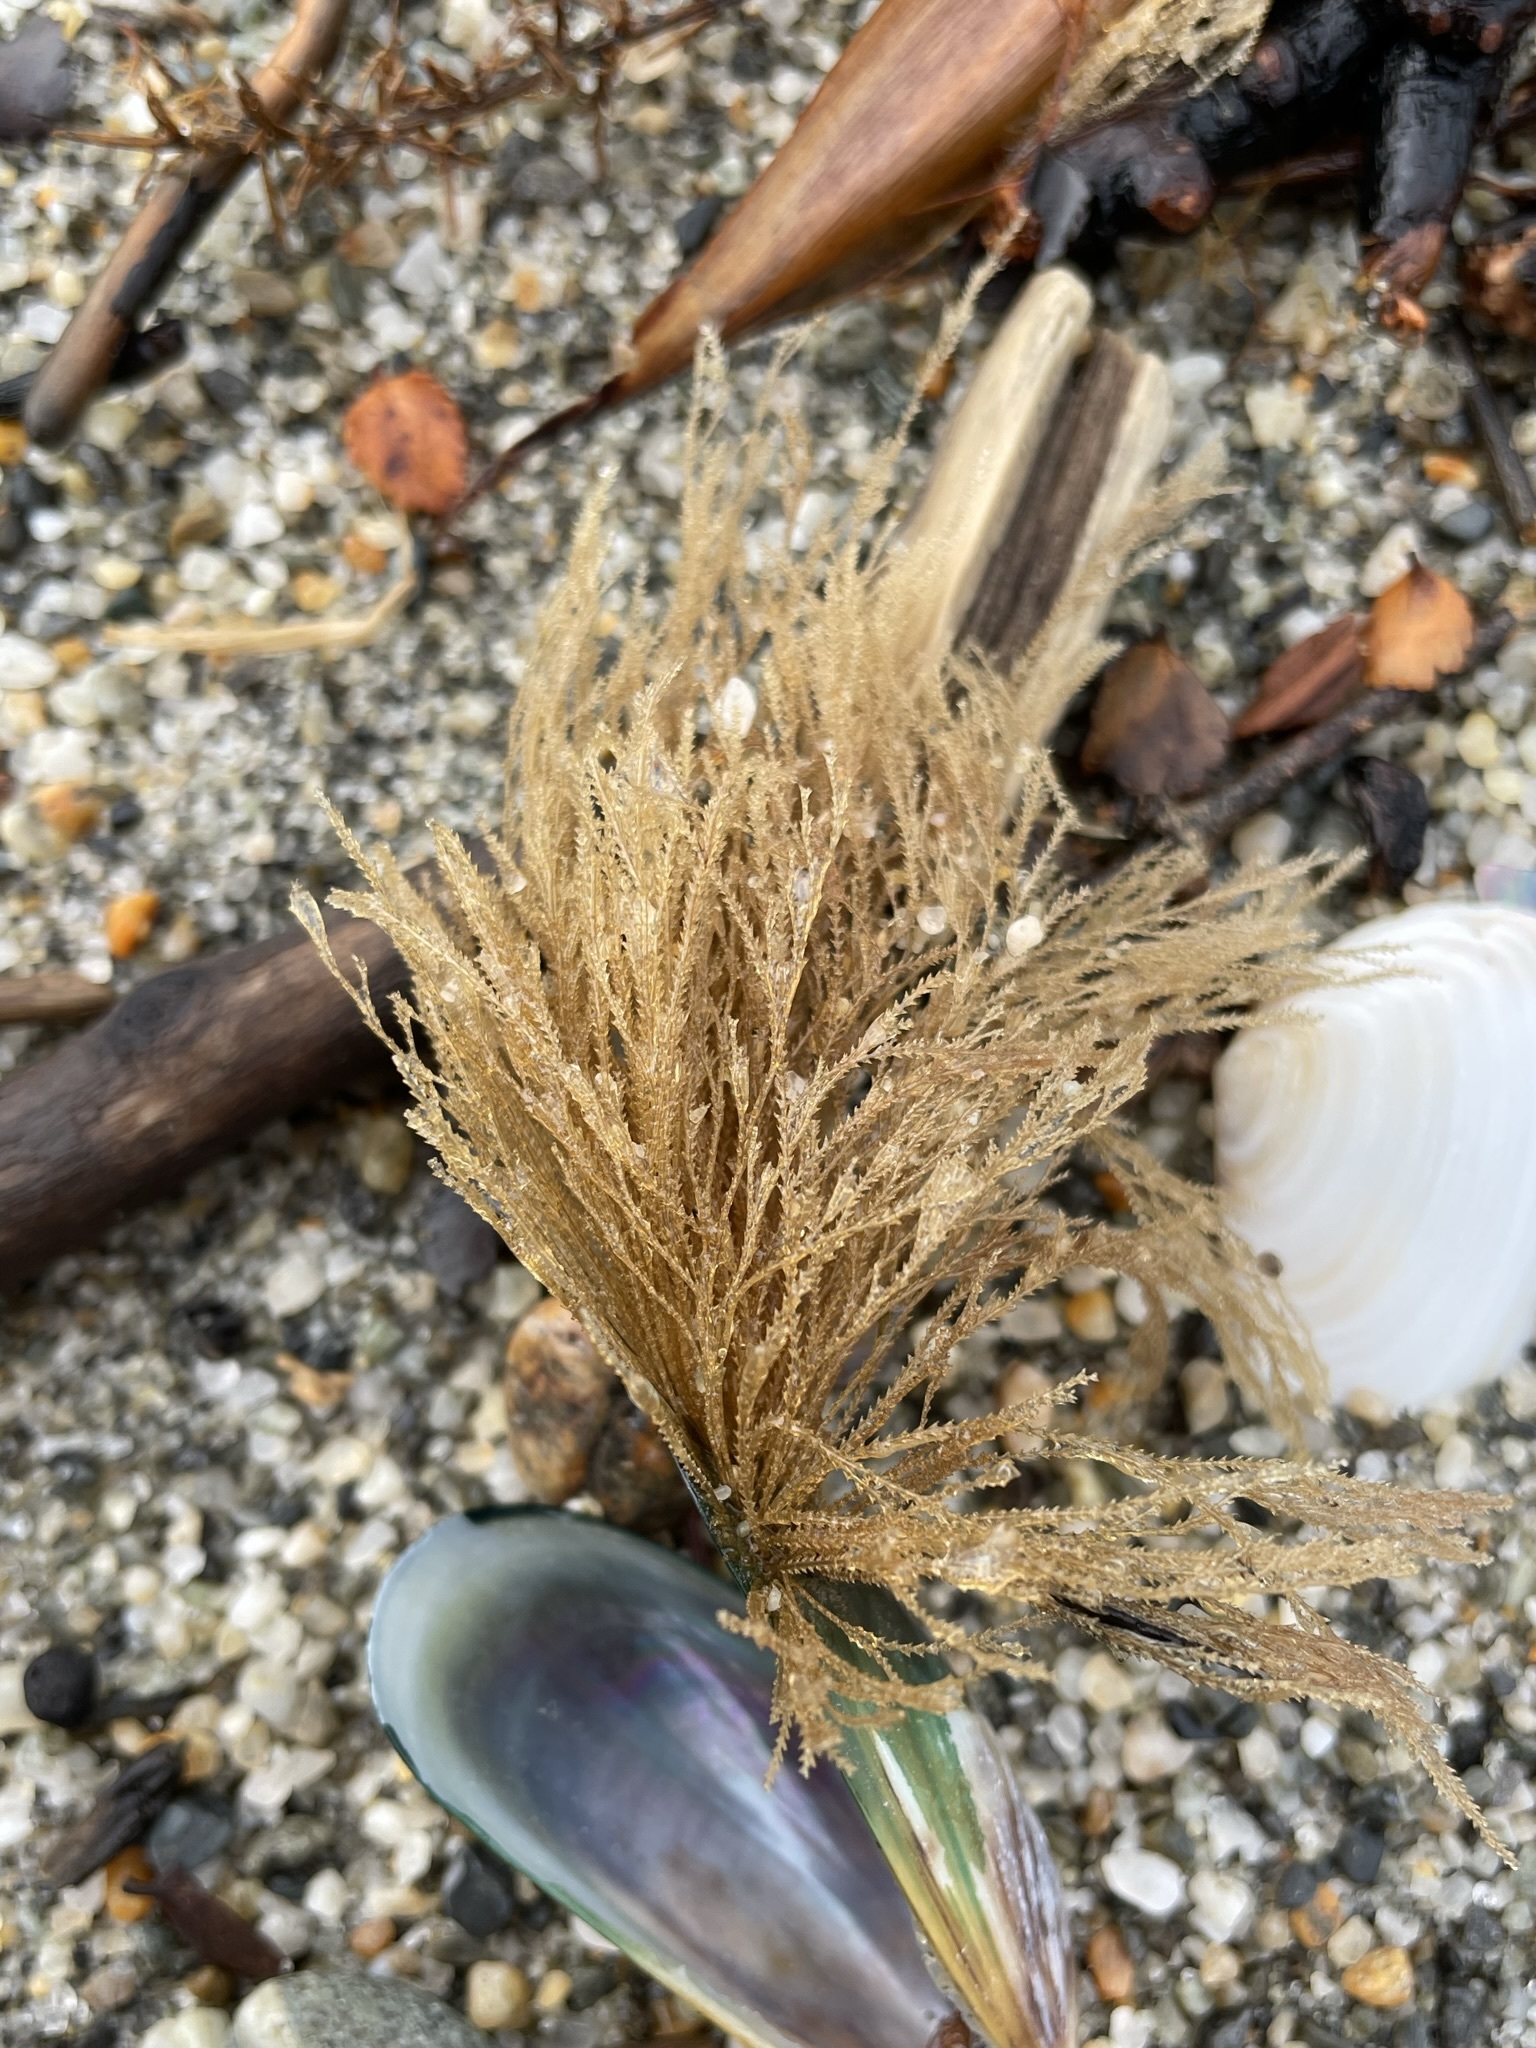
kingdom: Animalia
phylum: Cnidaria
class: Hydrozoa
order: Leptothecata
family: Sertulariidae
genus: Amphisbetia
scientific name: Amphisbetia bispinosa
